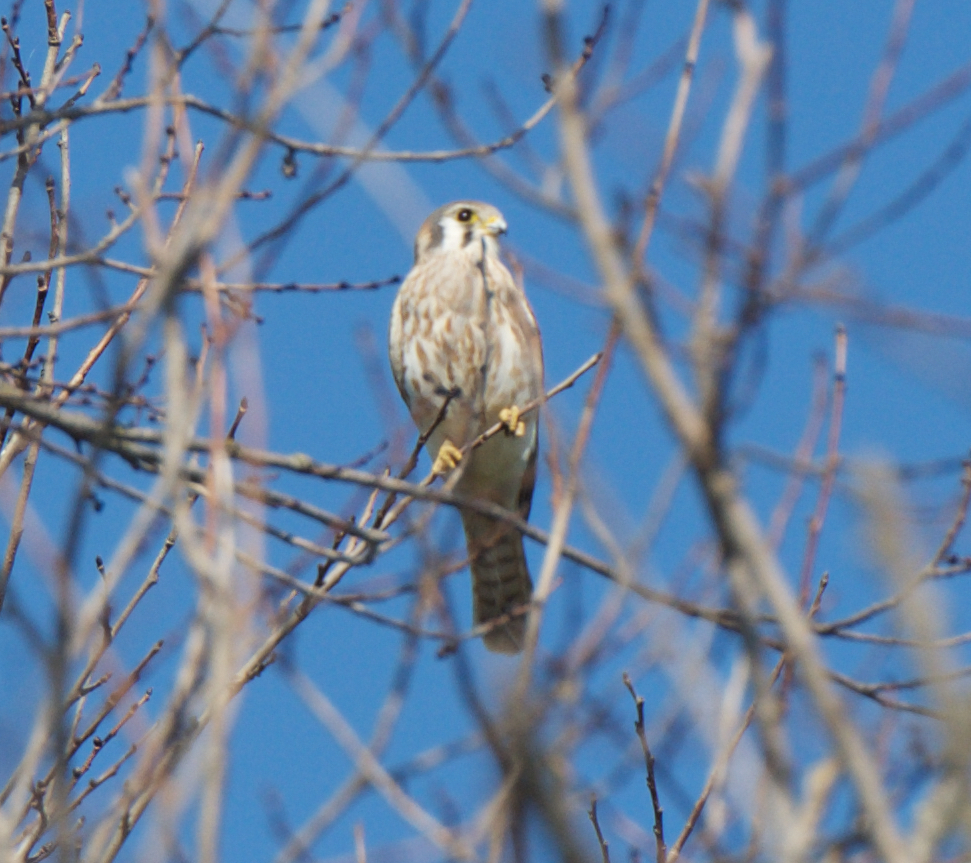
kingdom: Animalia
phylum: Chordata
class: Aves
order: Falconiformes
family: Falconidae
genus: Falco
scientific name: Falco sparverius
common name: American kestrel
